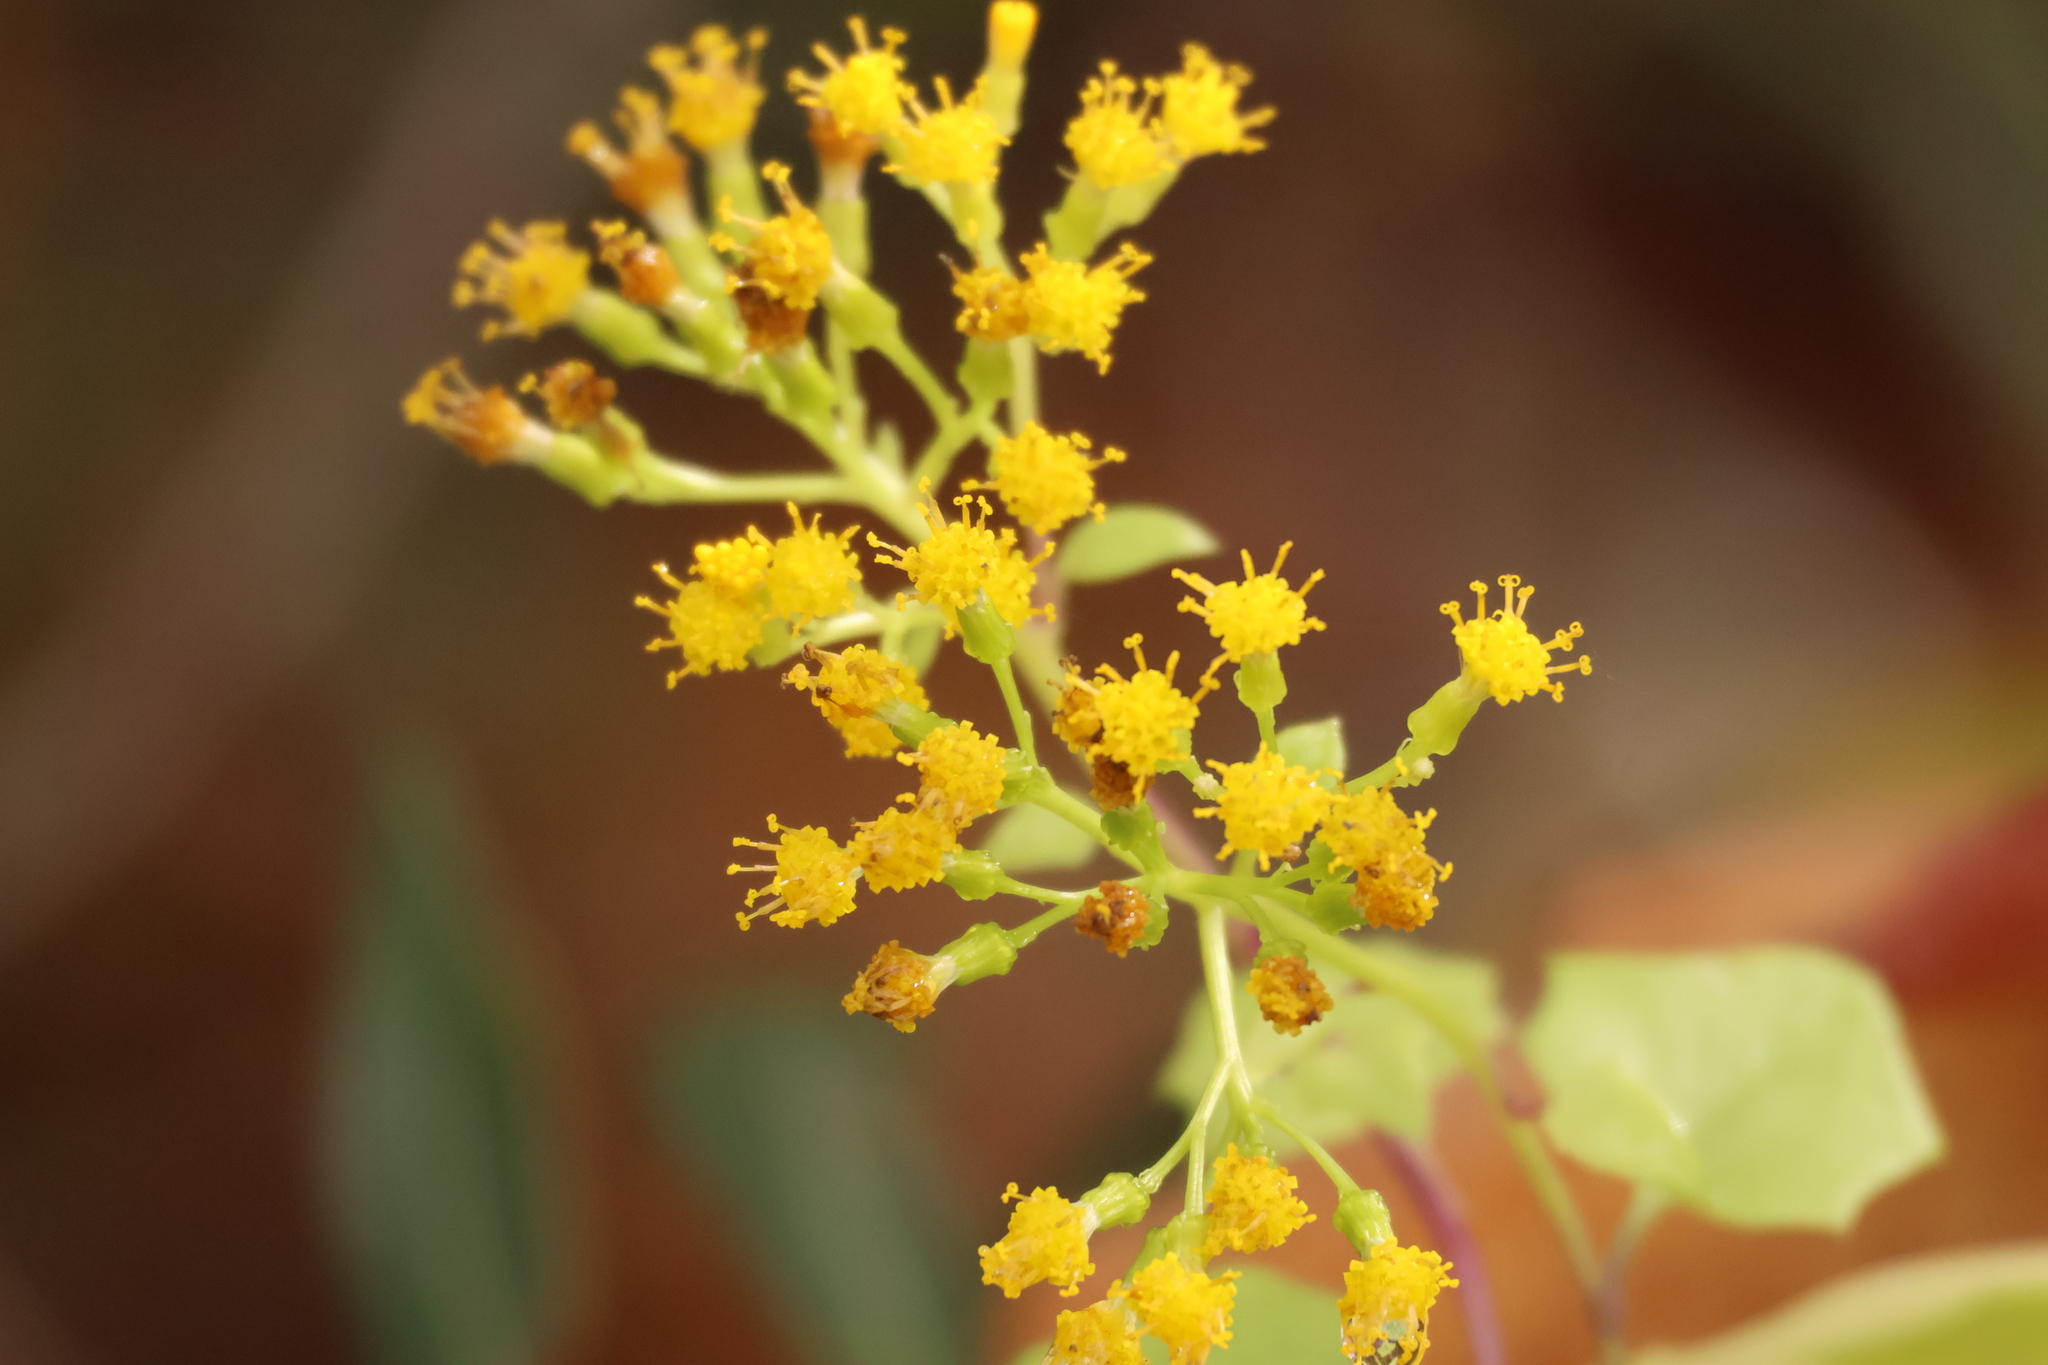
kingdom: Plantae
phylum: Tracheophyta
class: Magnoliopsida
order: Asterales
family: Asteraceae
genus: Delairea
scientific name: Delairea odorata
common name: Cape-ivy
